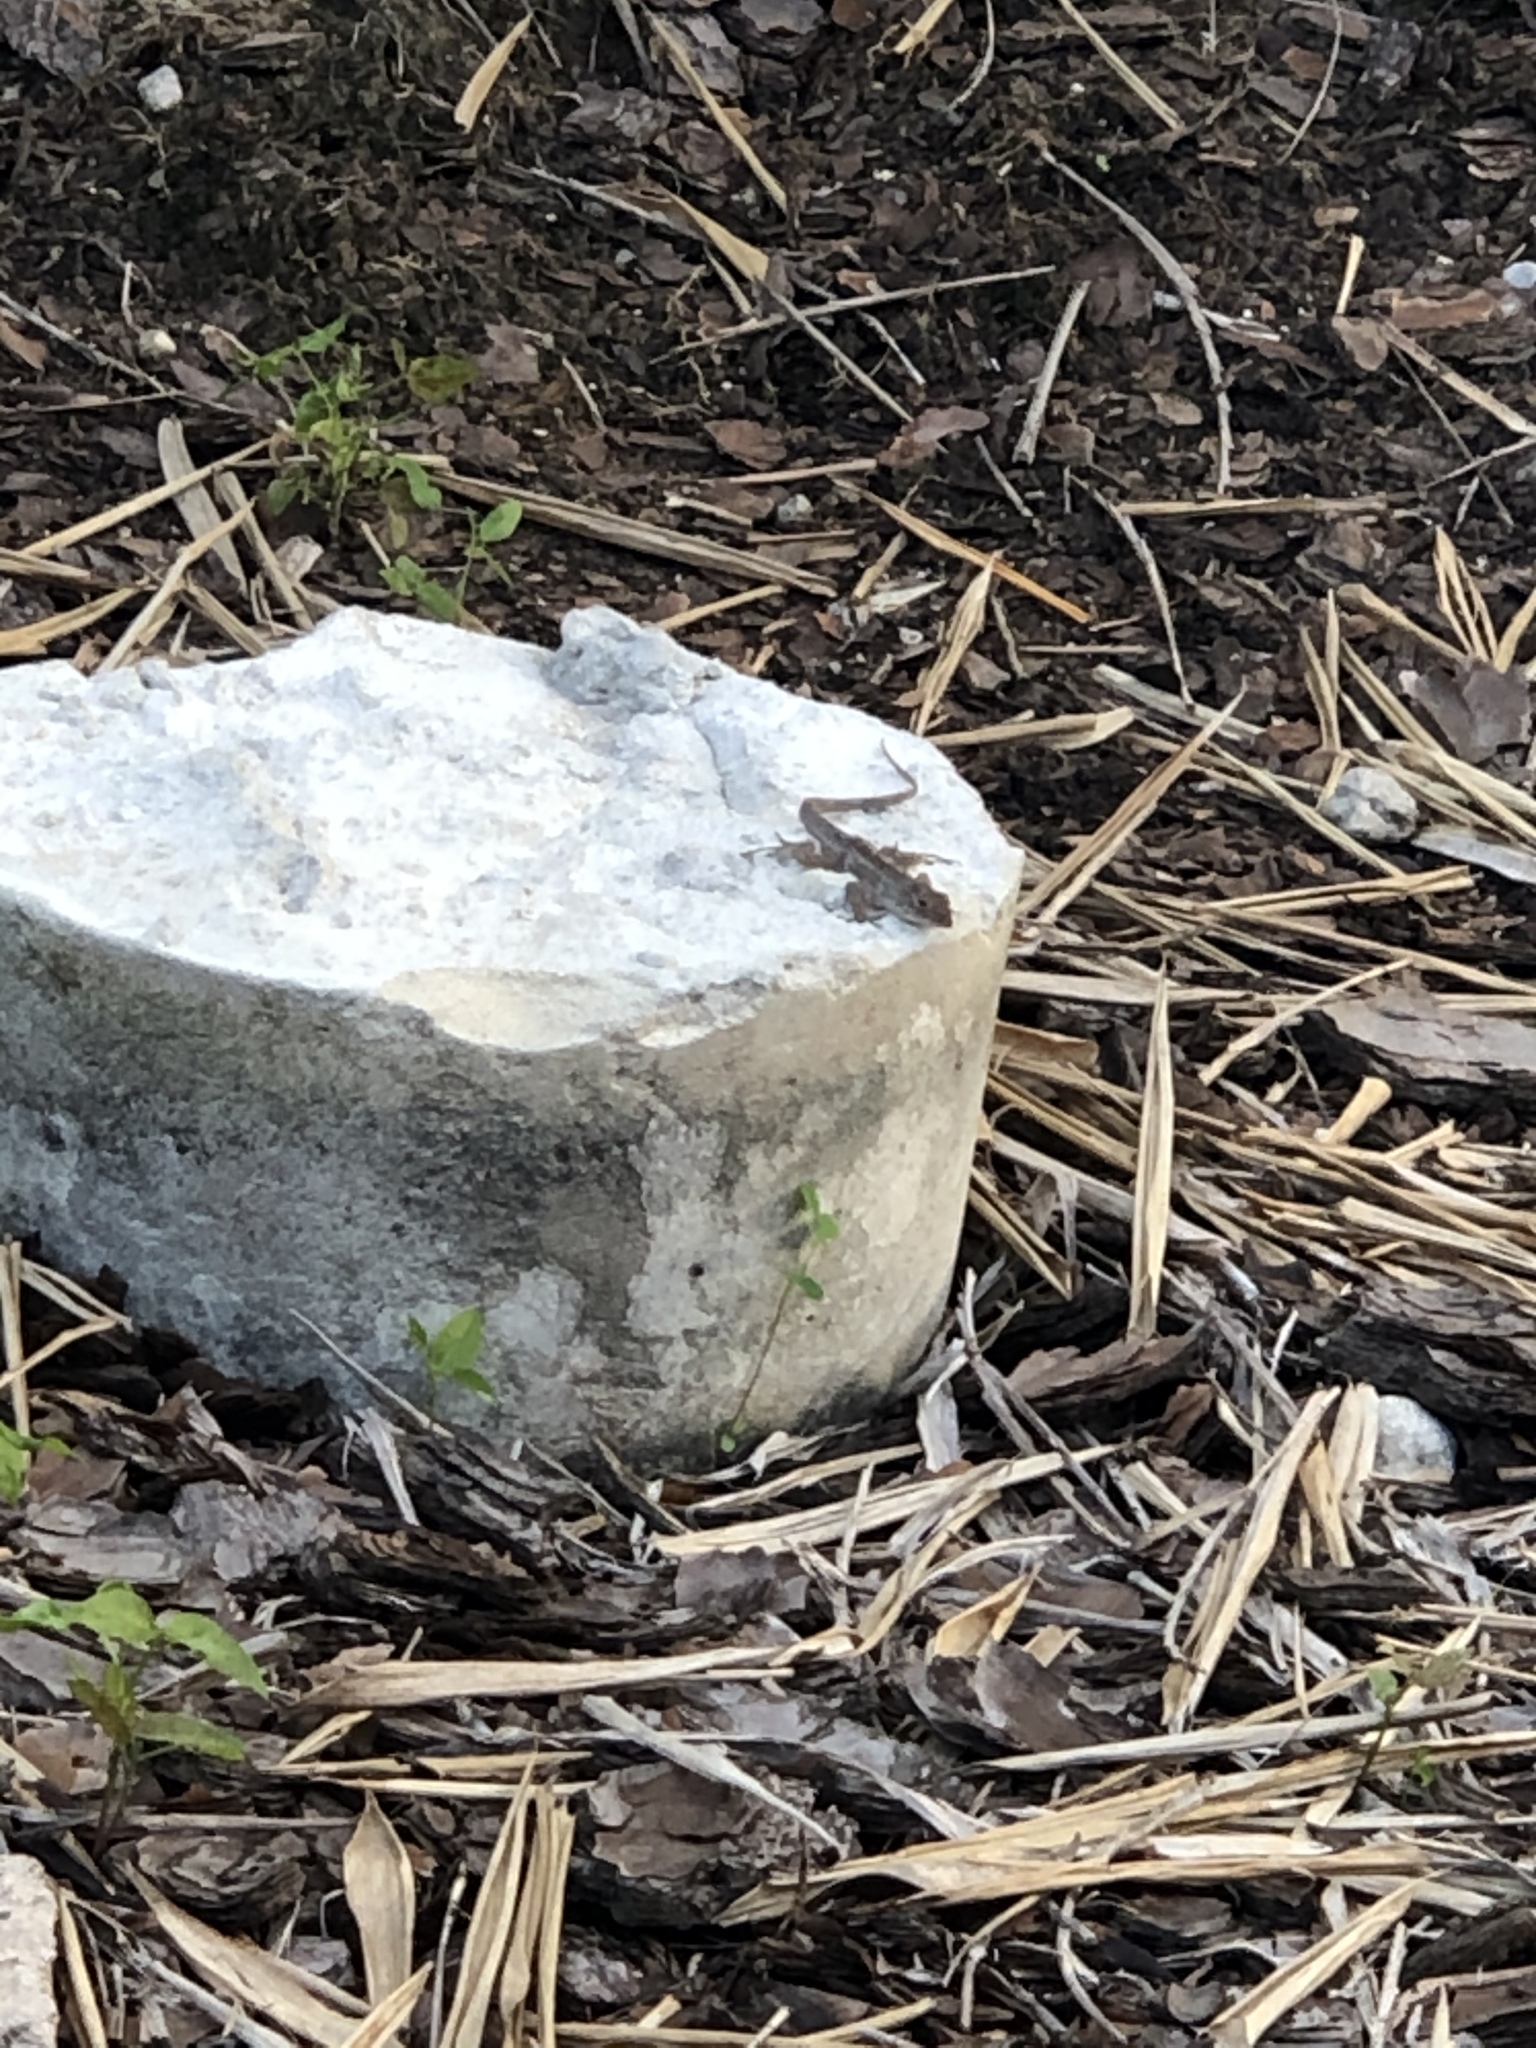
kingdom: Animalia
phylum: Chordata
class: Squamata
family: Dactyloidae
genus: Anolis
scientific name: Anolis sagrei
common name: Brown anole
